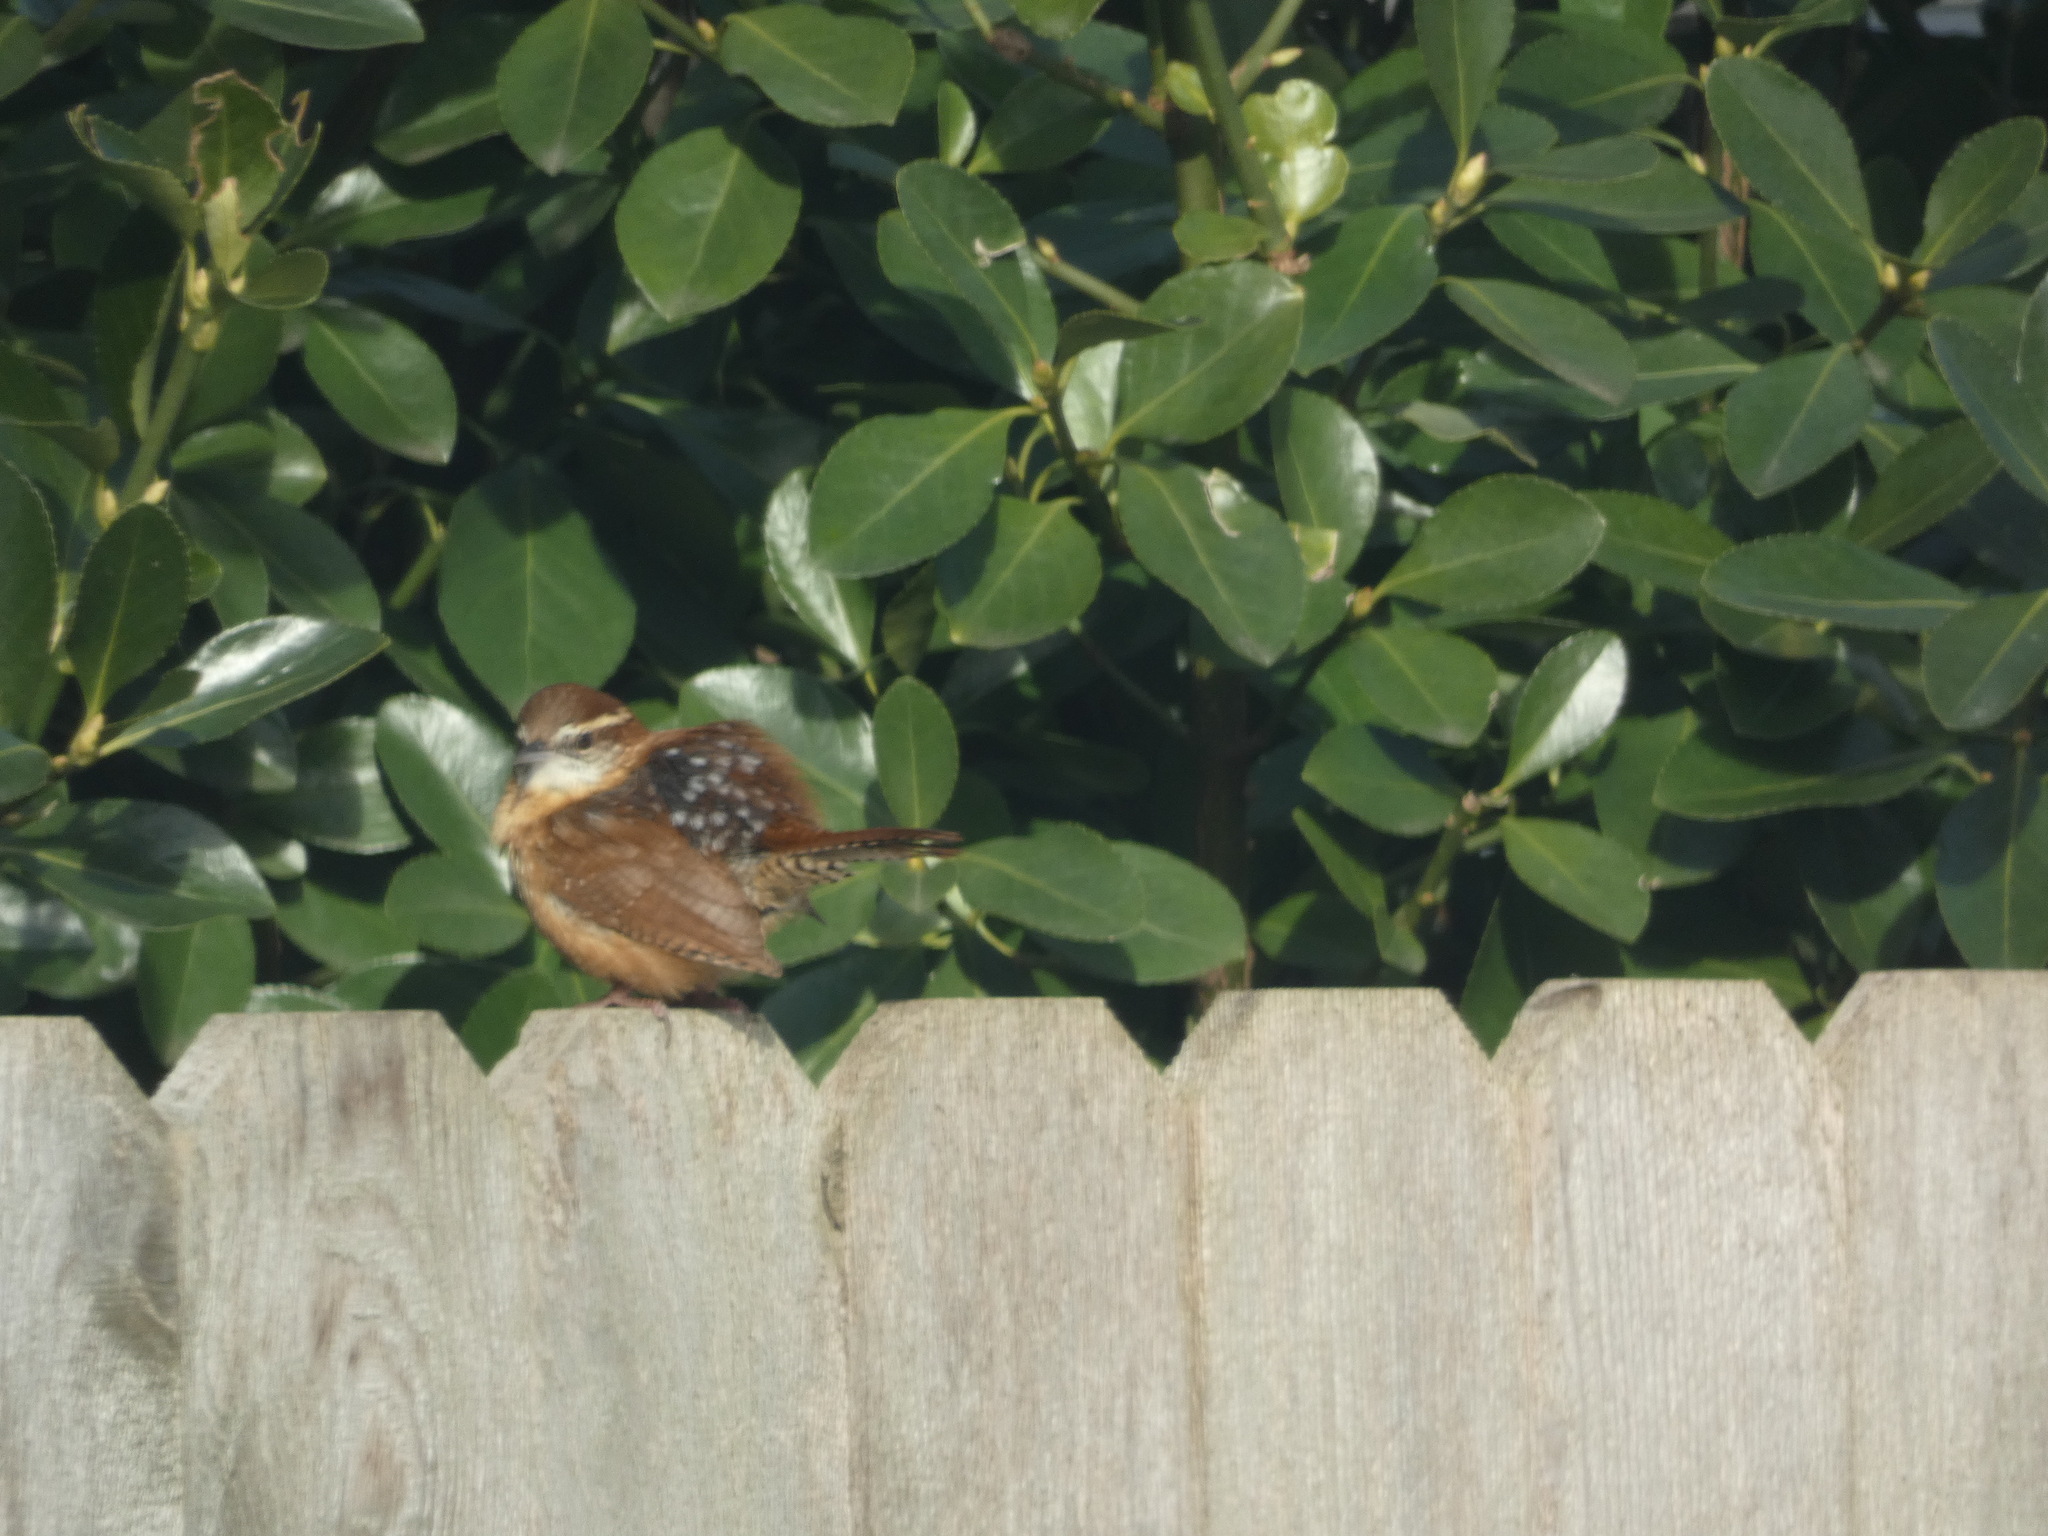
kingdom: Animalia
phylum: Chordata
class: Aves
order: Passeriformes
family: Troglodytidae
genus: Thryothorus
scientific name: Thryothorus ludovicianus
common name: Carolina wren
